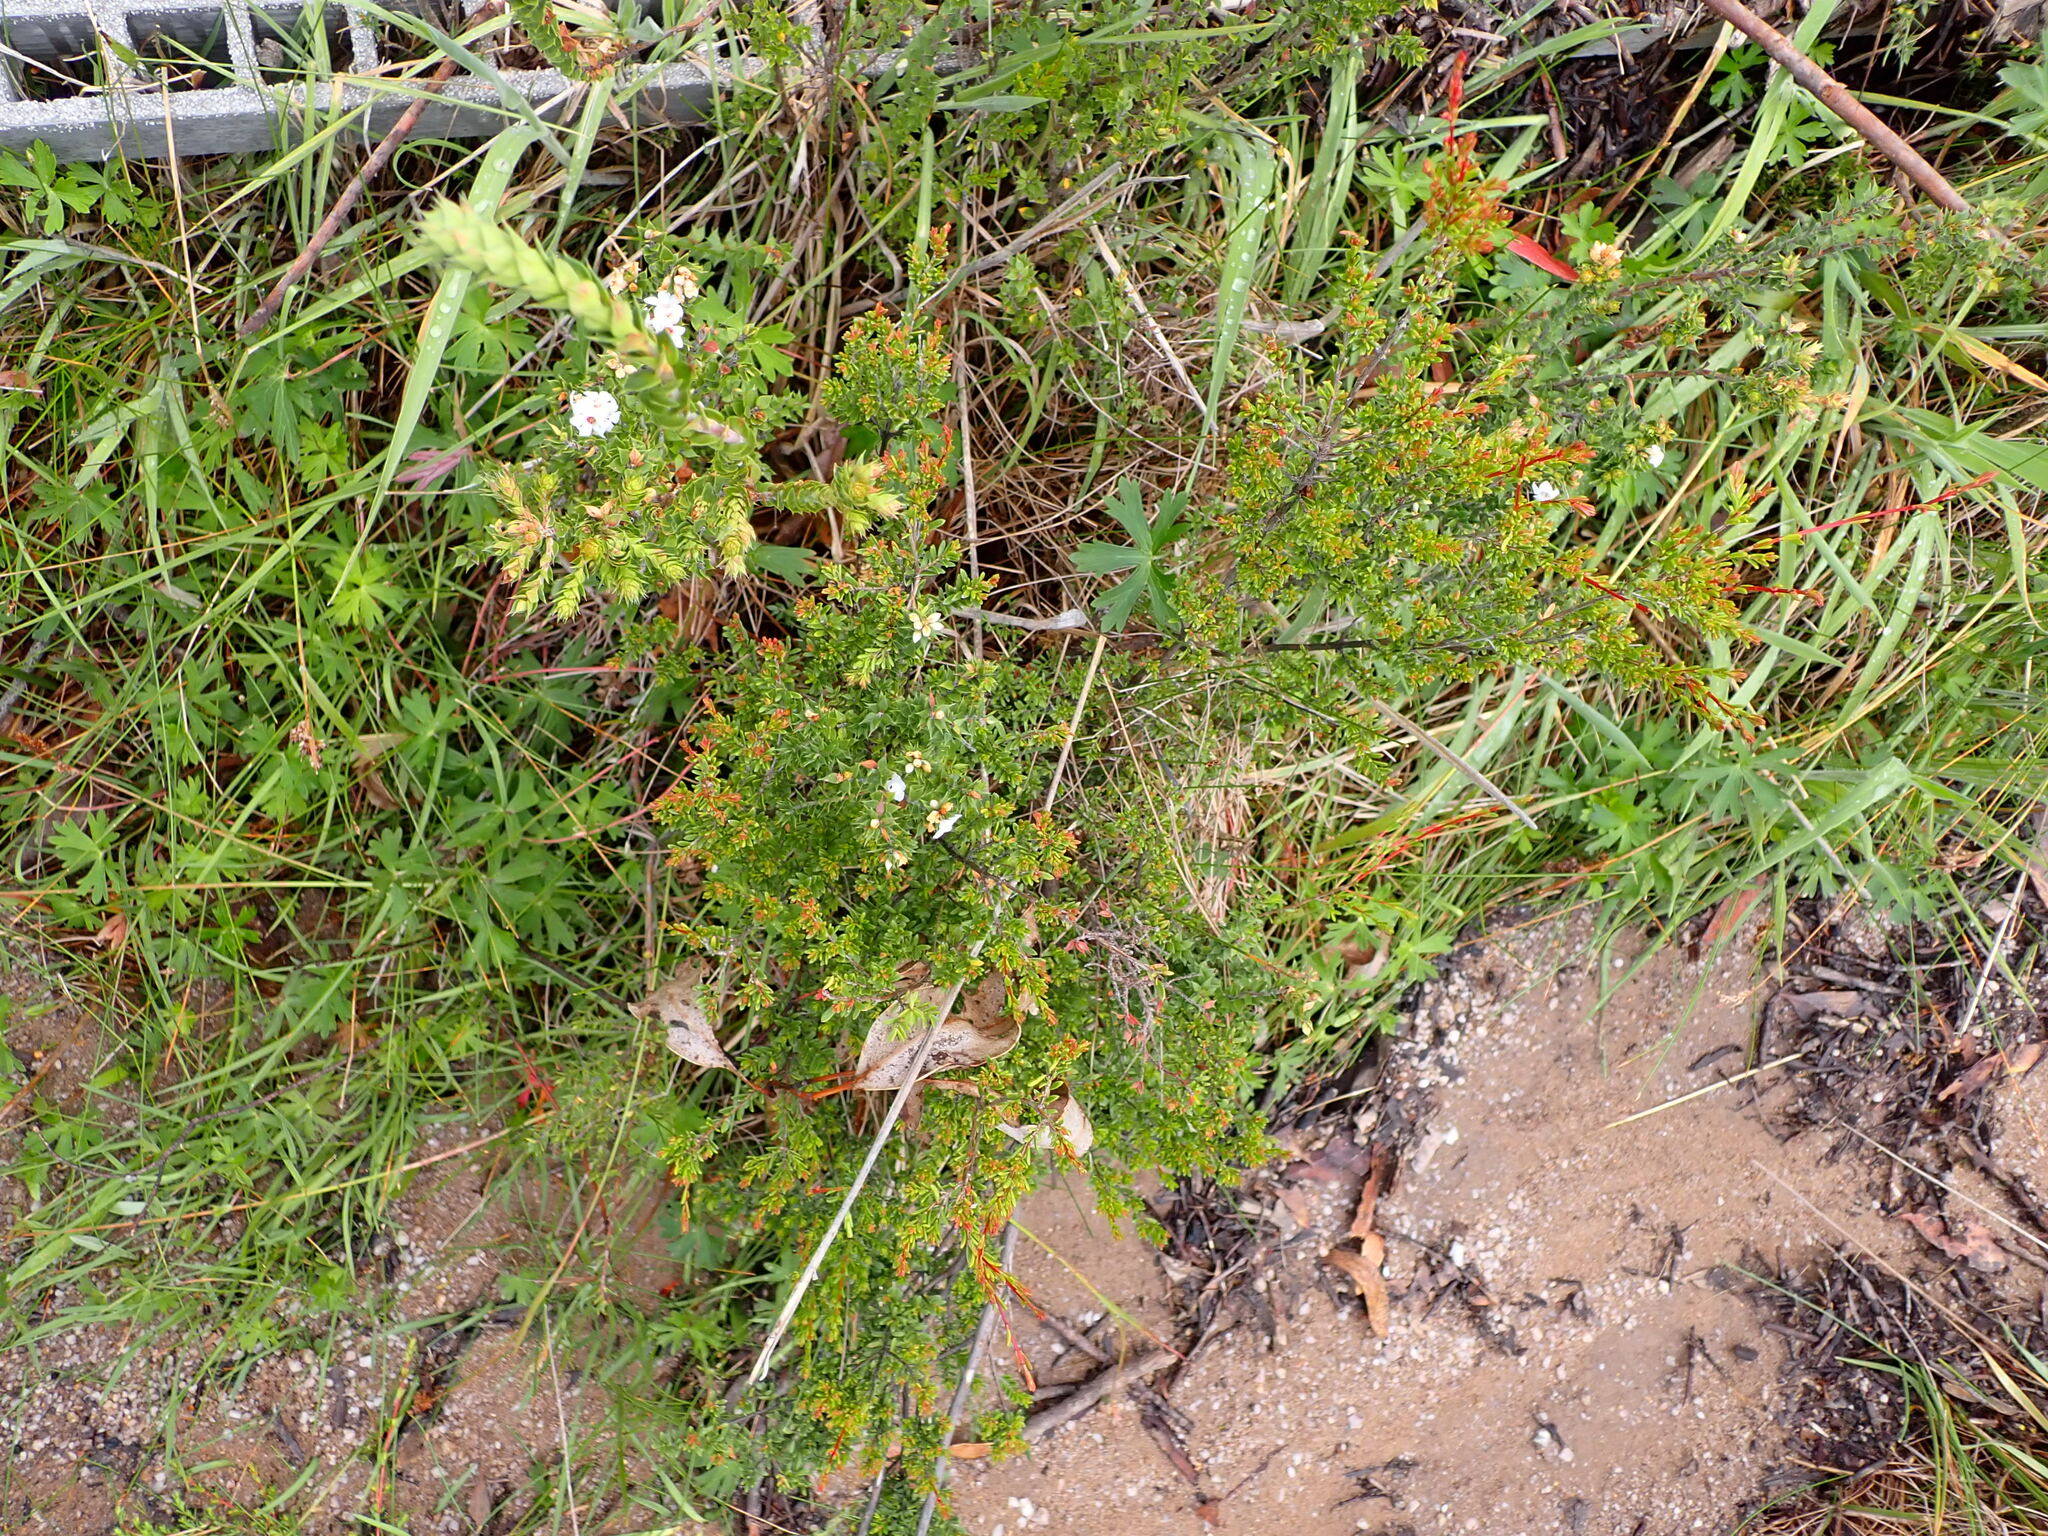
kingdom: Plantae
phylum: Tracheophyta
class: Magnoliopsida
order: Ericales
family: Ericaceae
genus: Epacris
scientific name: Epacris breviflora
